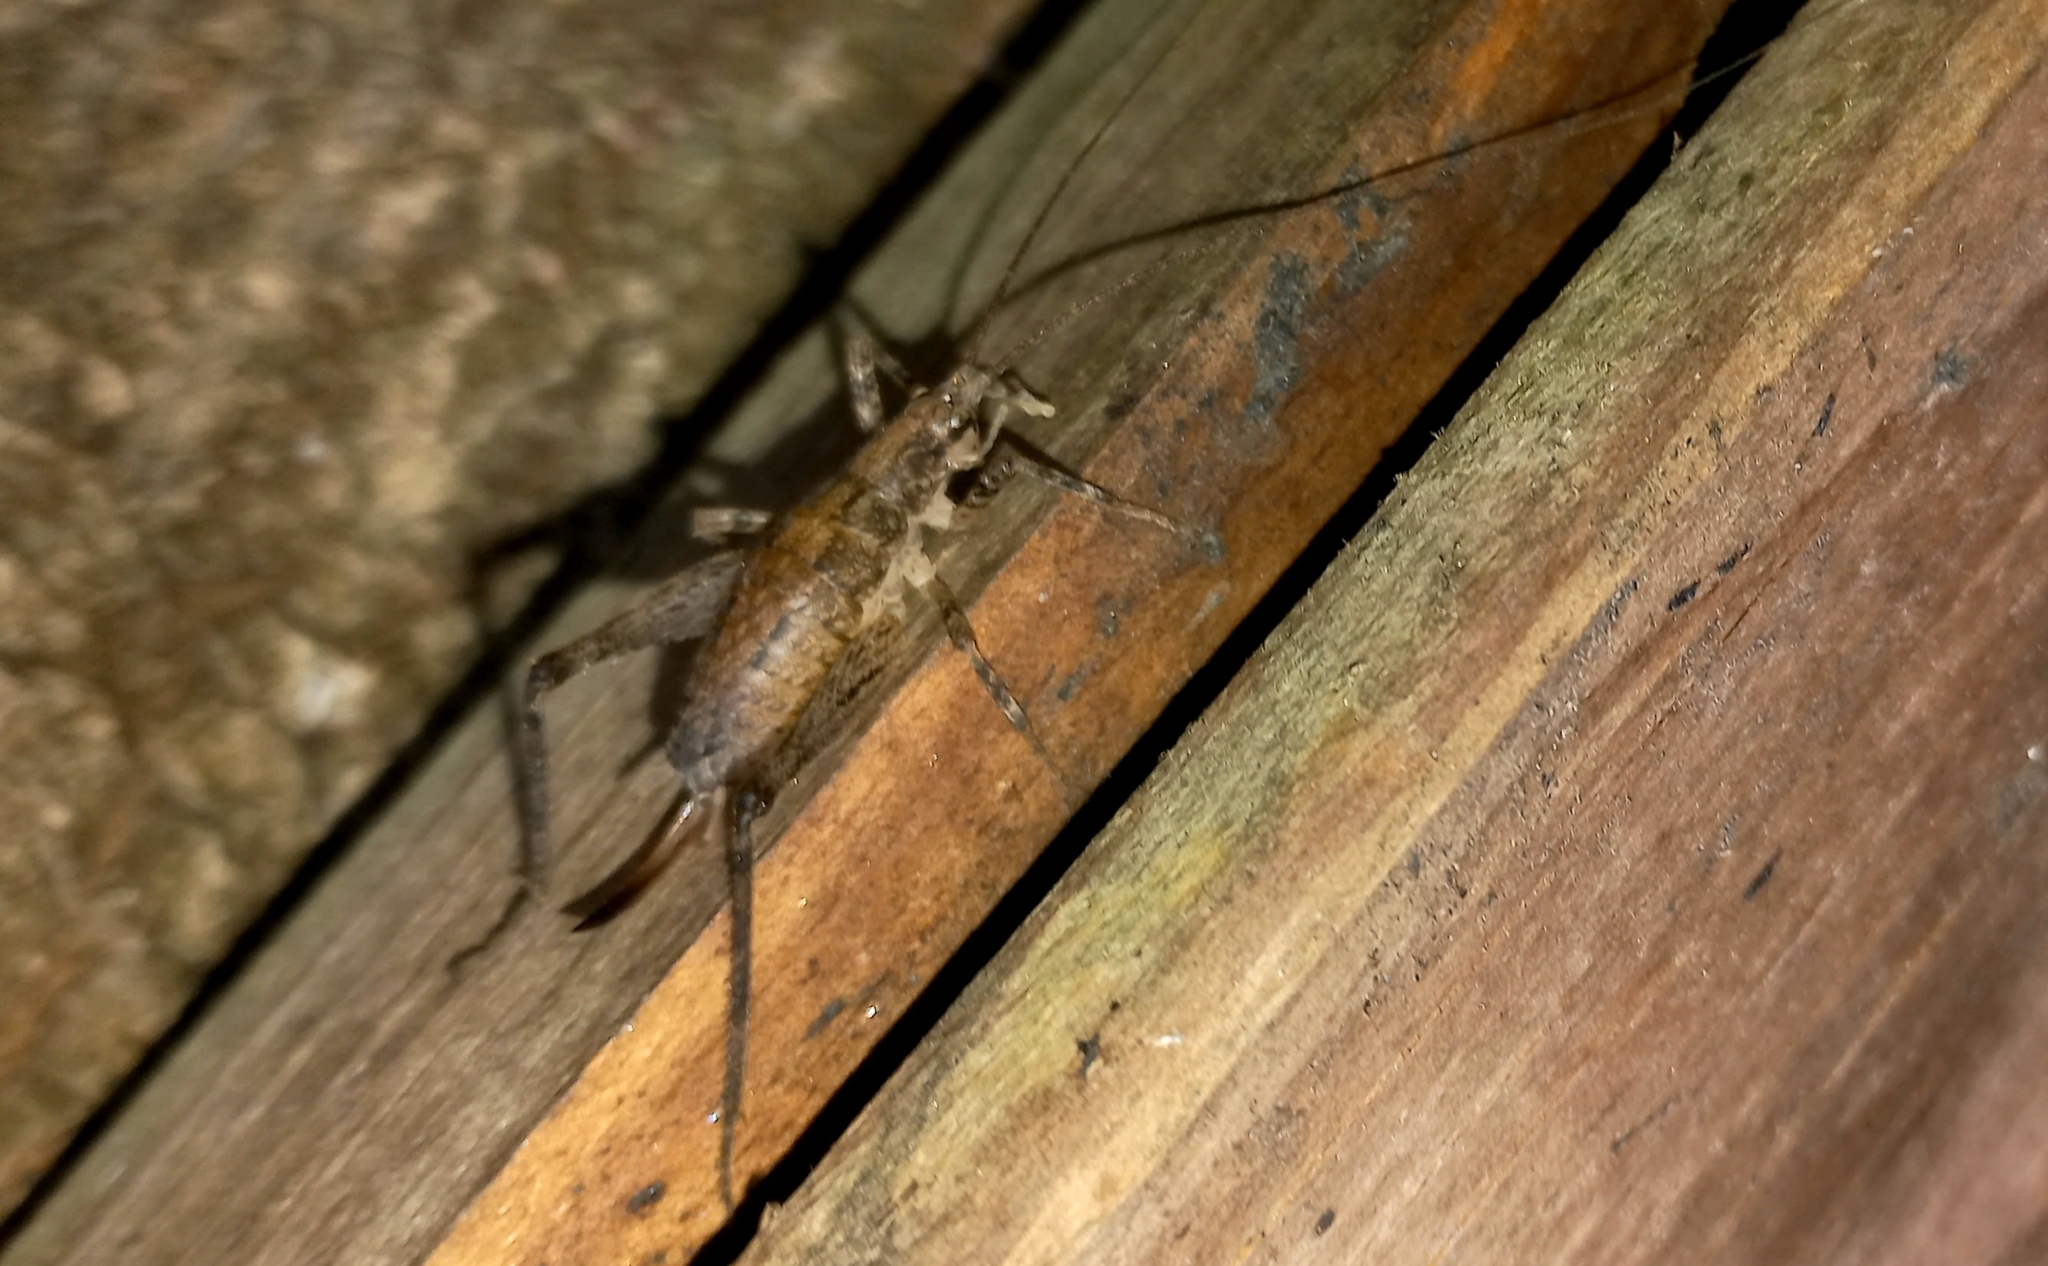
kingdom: Animalia
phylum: Arthropoda
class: Insecta
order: Orthoptera
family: Rhaphidophoridae
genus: Isoplectron
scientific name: Isoplectron armatum
